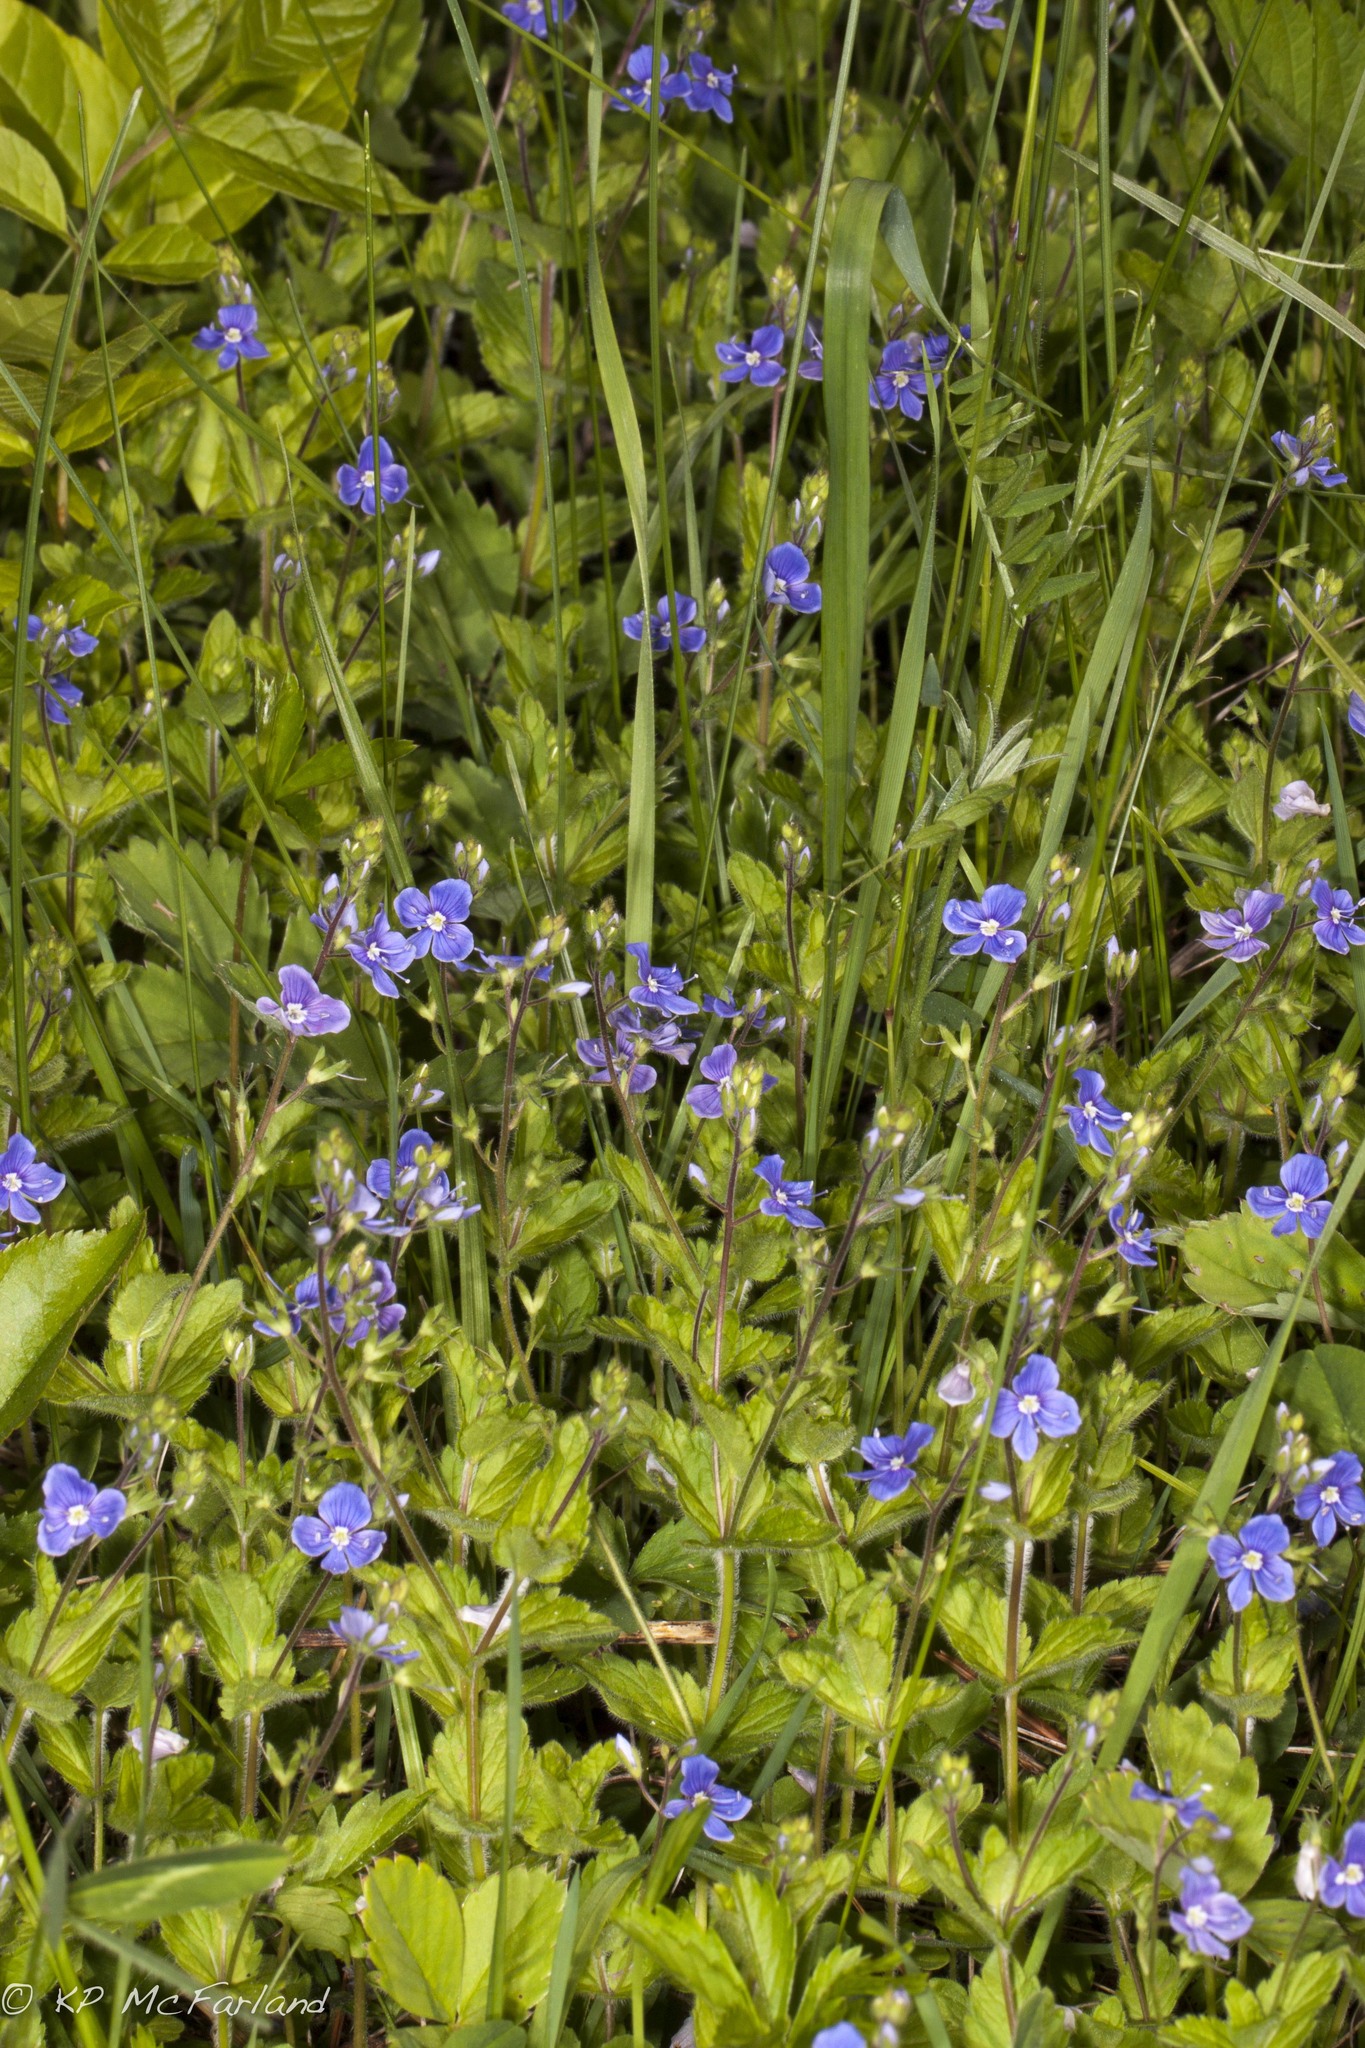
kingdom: Plantae
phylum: Tracheophyta
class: Magnoliopsida
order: Lamiales
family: Plantaginaceae
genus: Veronica
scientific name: Veronica chamaedrys
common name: Germander speedwell
